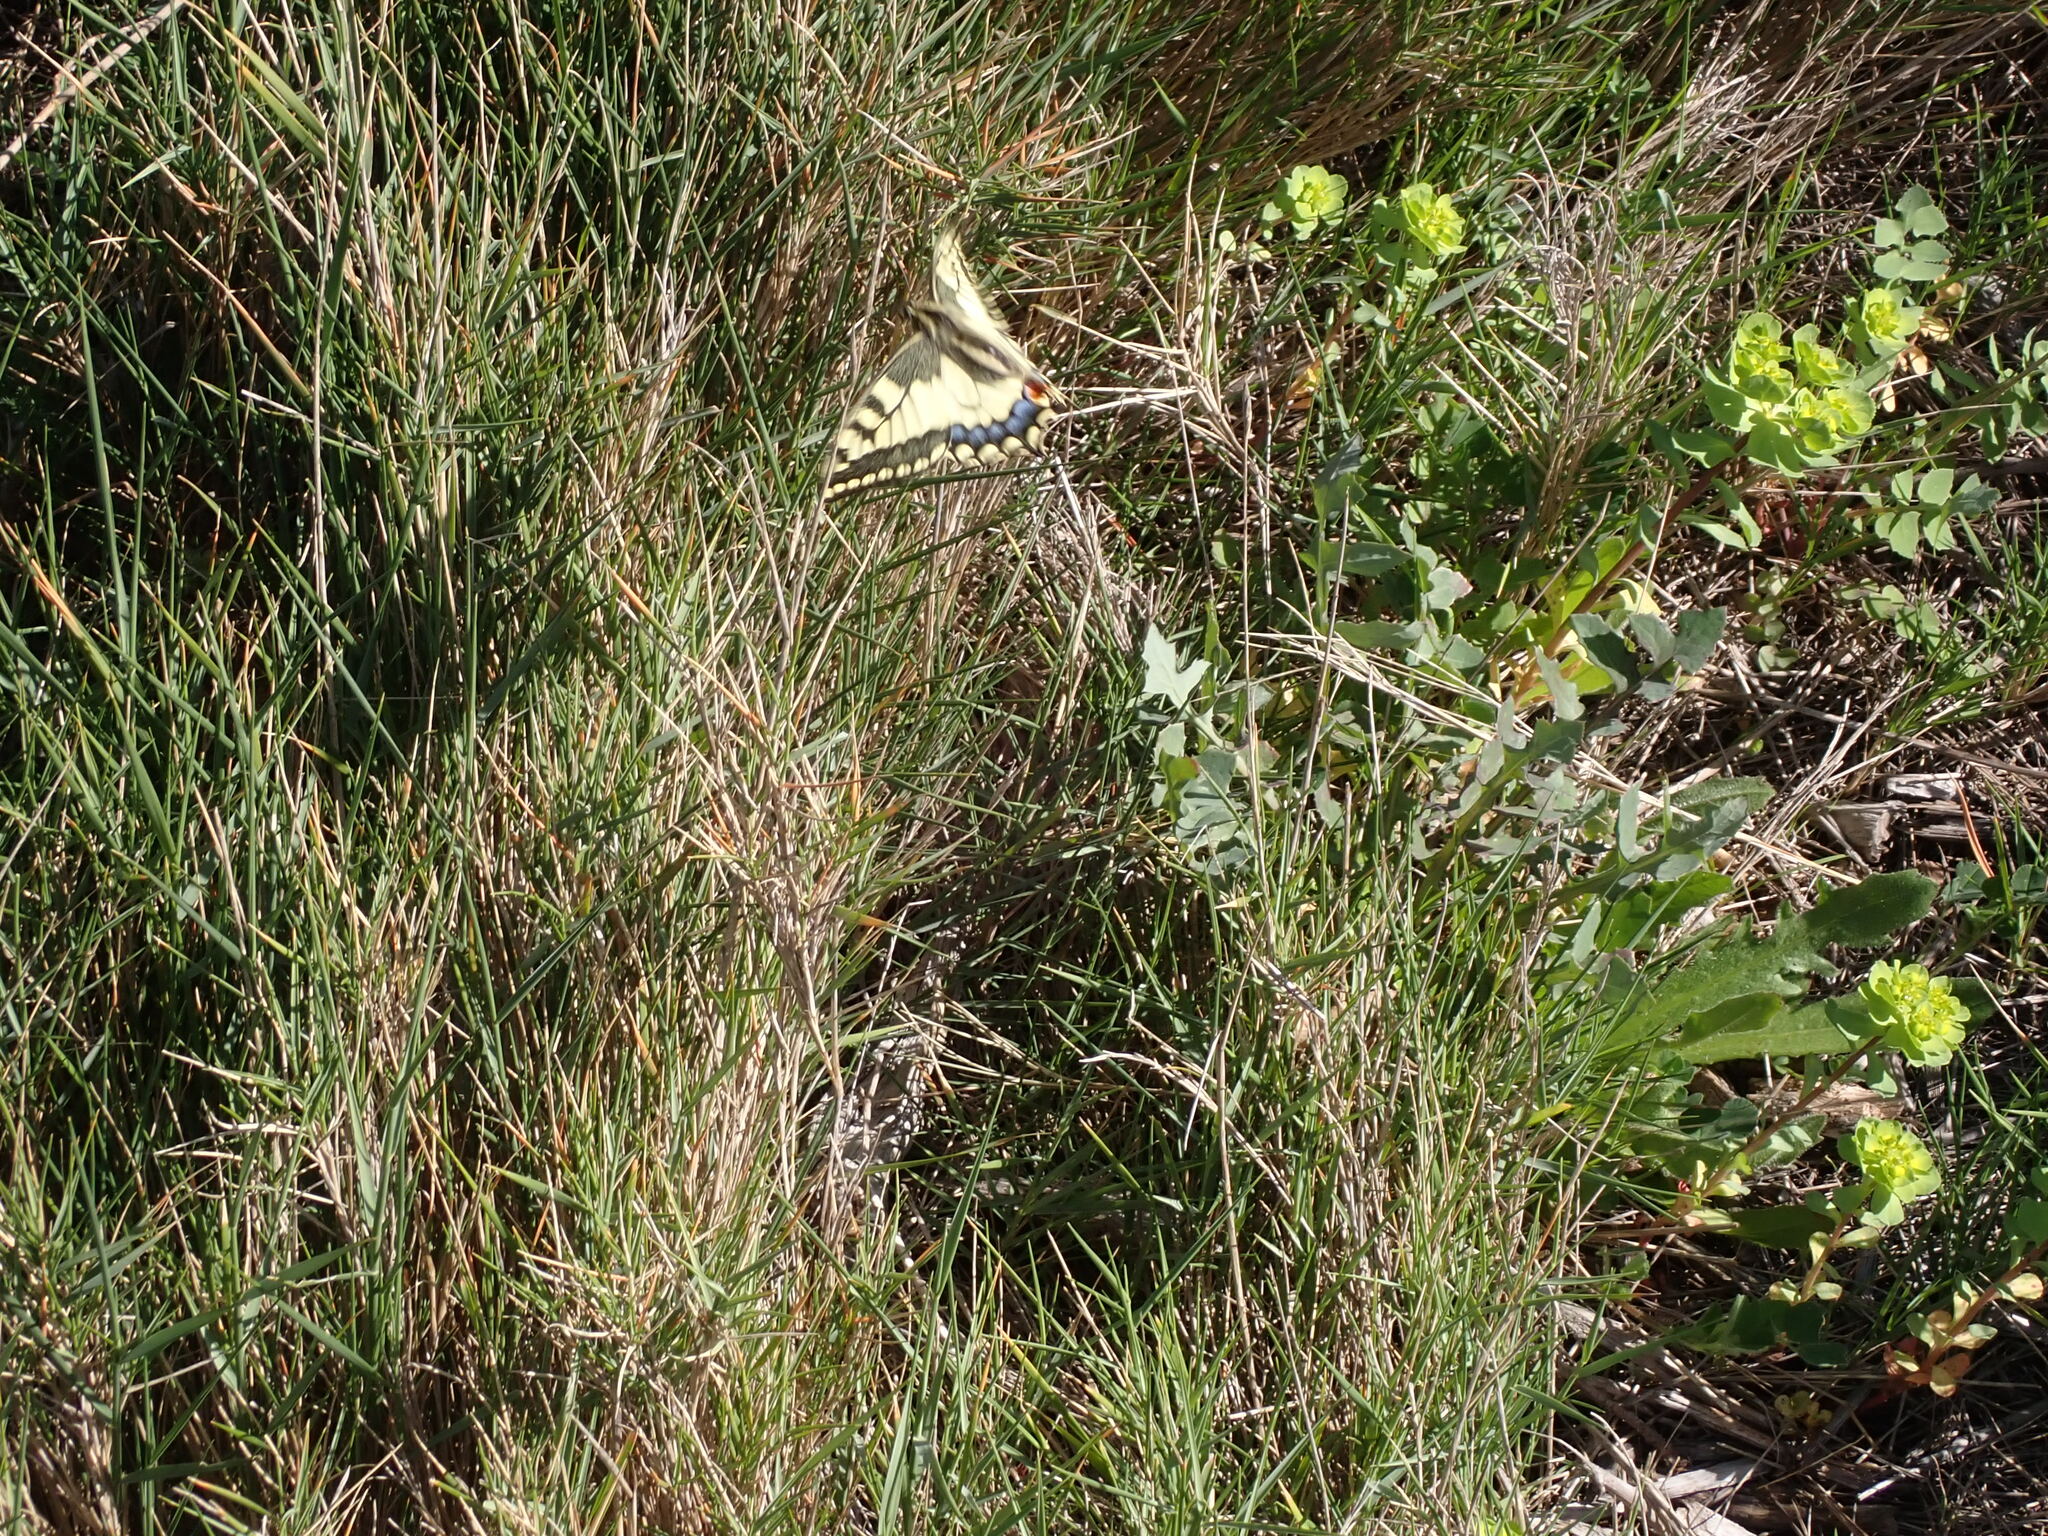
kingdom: Animalia
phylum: Arthropoda
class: Insecta
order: Lepidoptera
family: Papilionidae
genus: Papilio
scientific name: Papilio machaon
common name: Swallowtail
